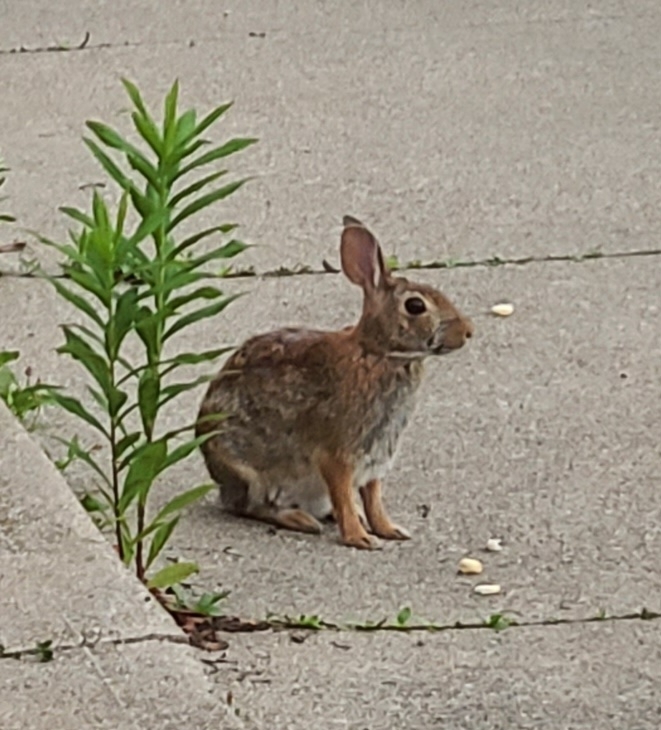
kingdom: Animalia
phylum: Chordata
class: Mammalia
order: Lagomorpha
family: Leporidae
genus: Sylvilagus
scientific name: Sylvilagus floridanus
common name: Eastern cottontail
